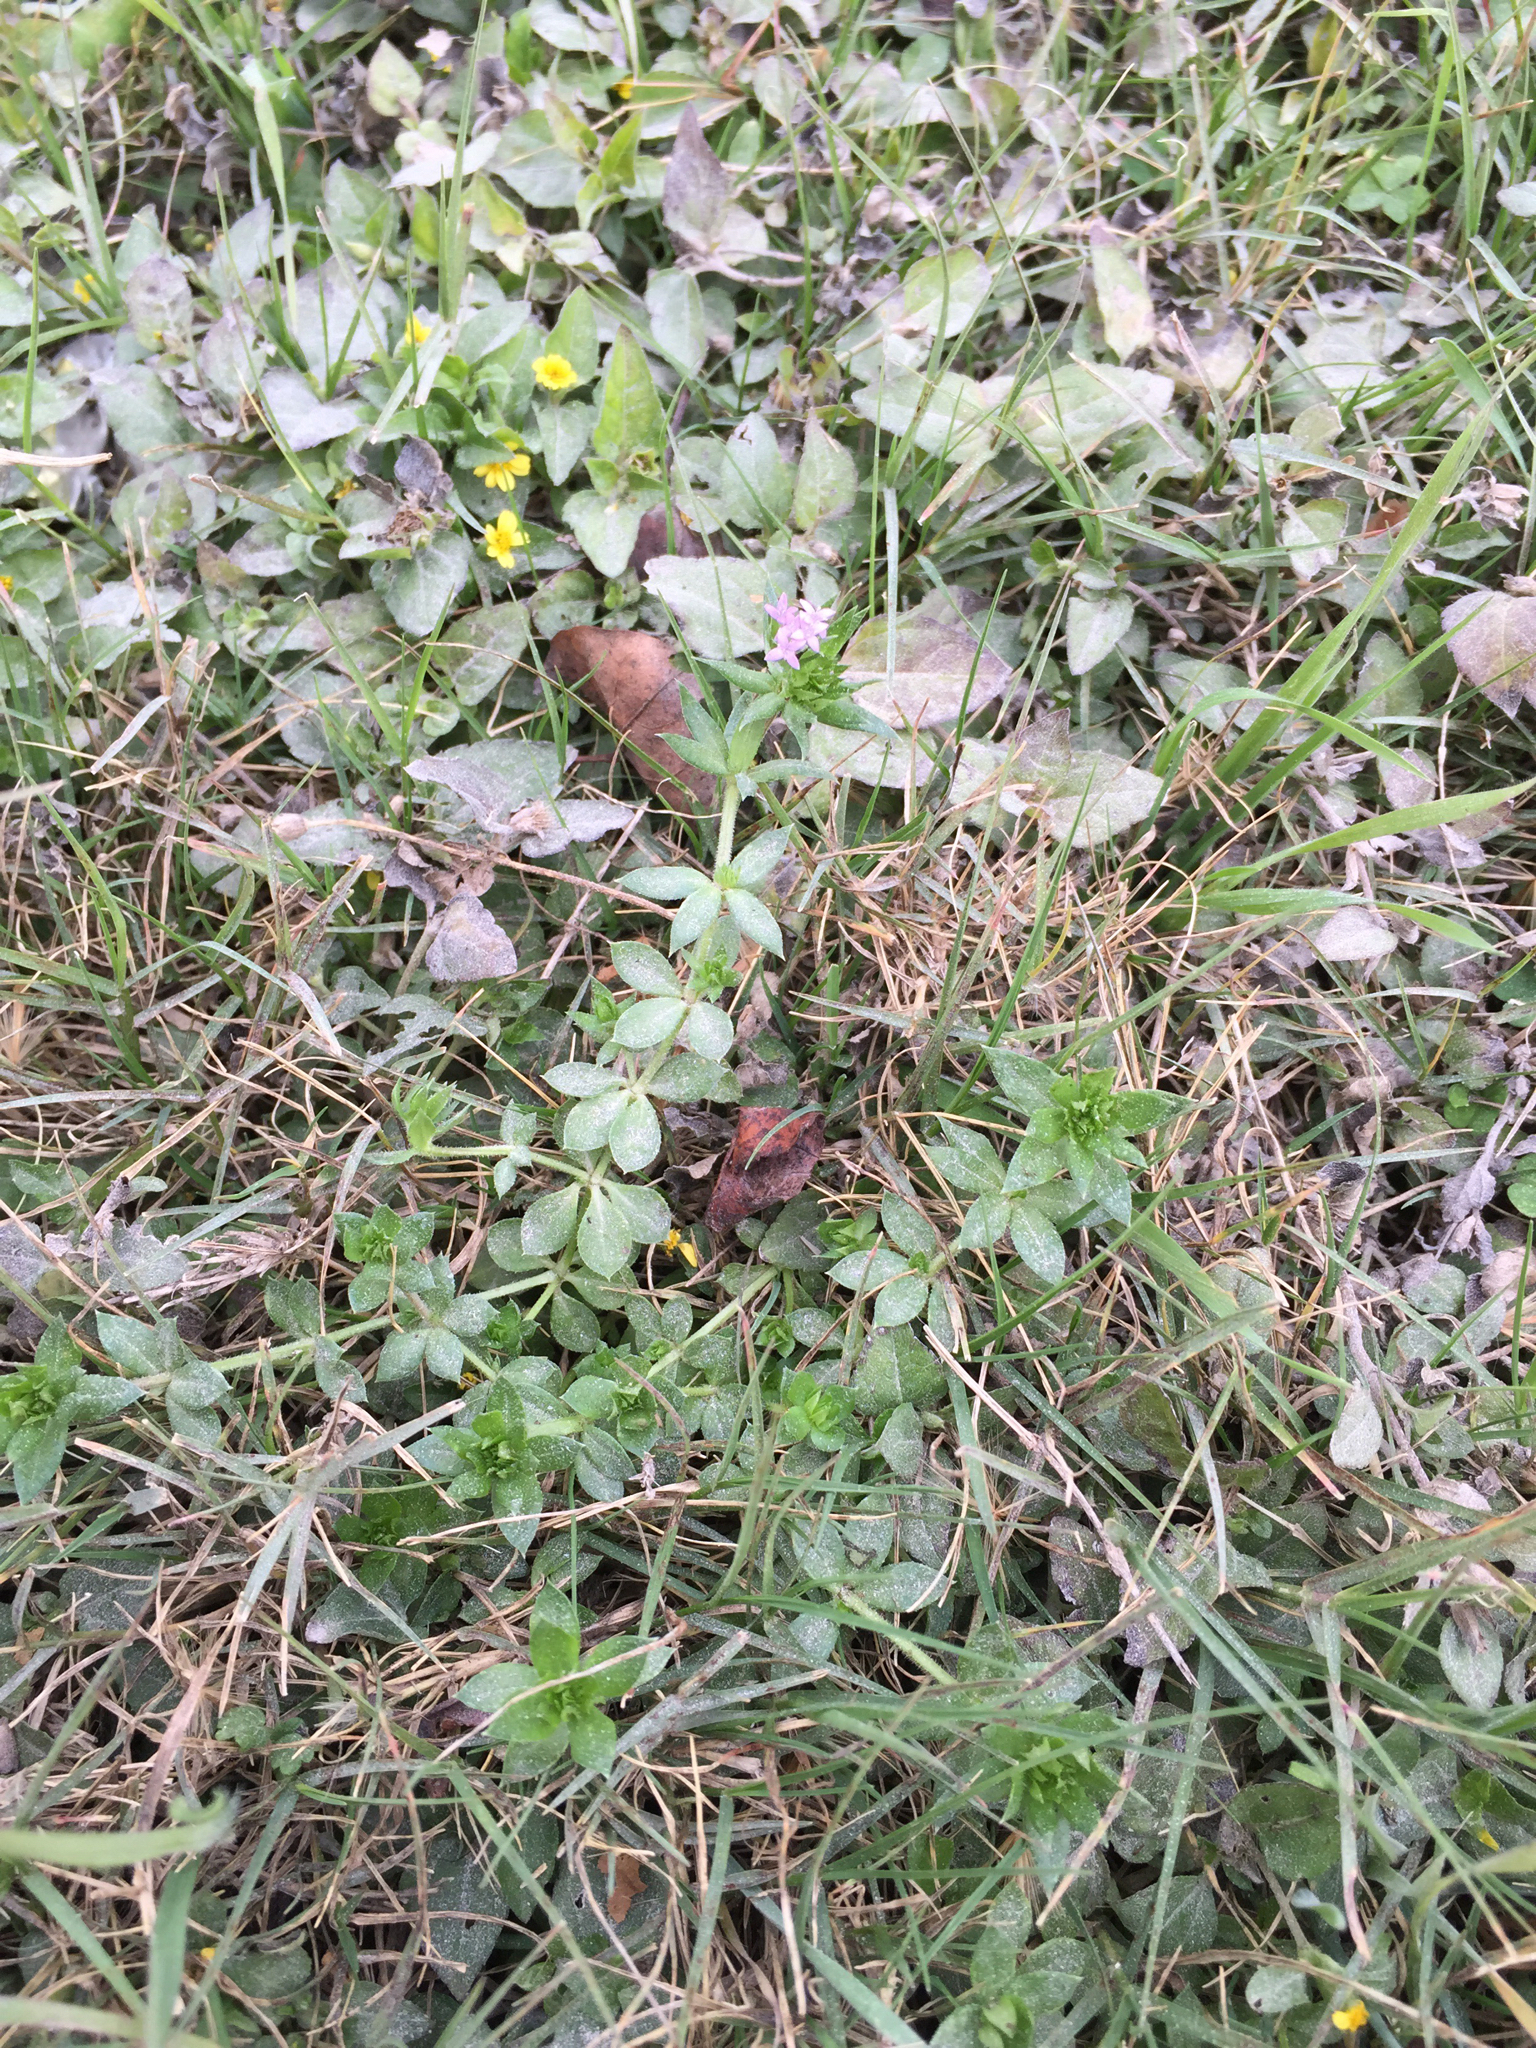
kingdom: Plantae
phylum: Tracheophyta
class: Magnoliopsida
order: Gentianales
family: Rubiaceae
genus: Sherardia
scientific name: Sherardia arvensis
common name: Field madder
